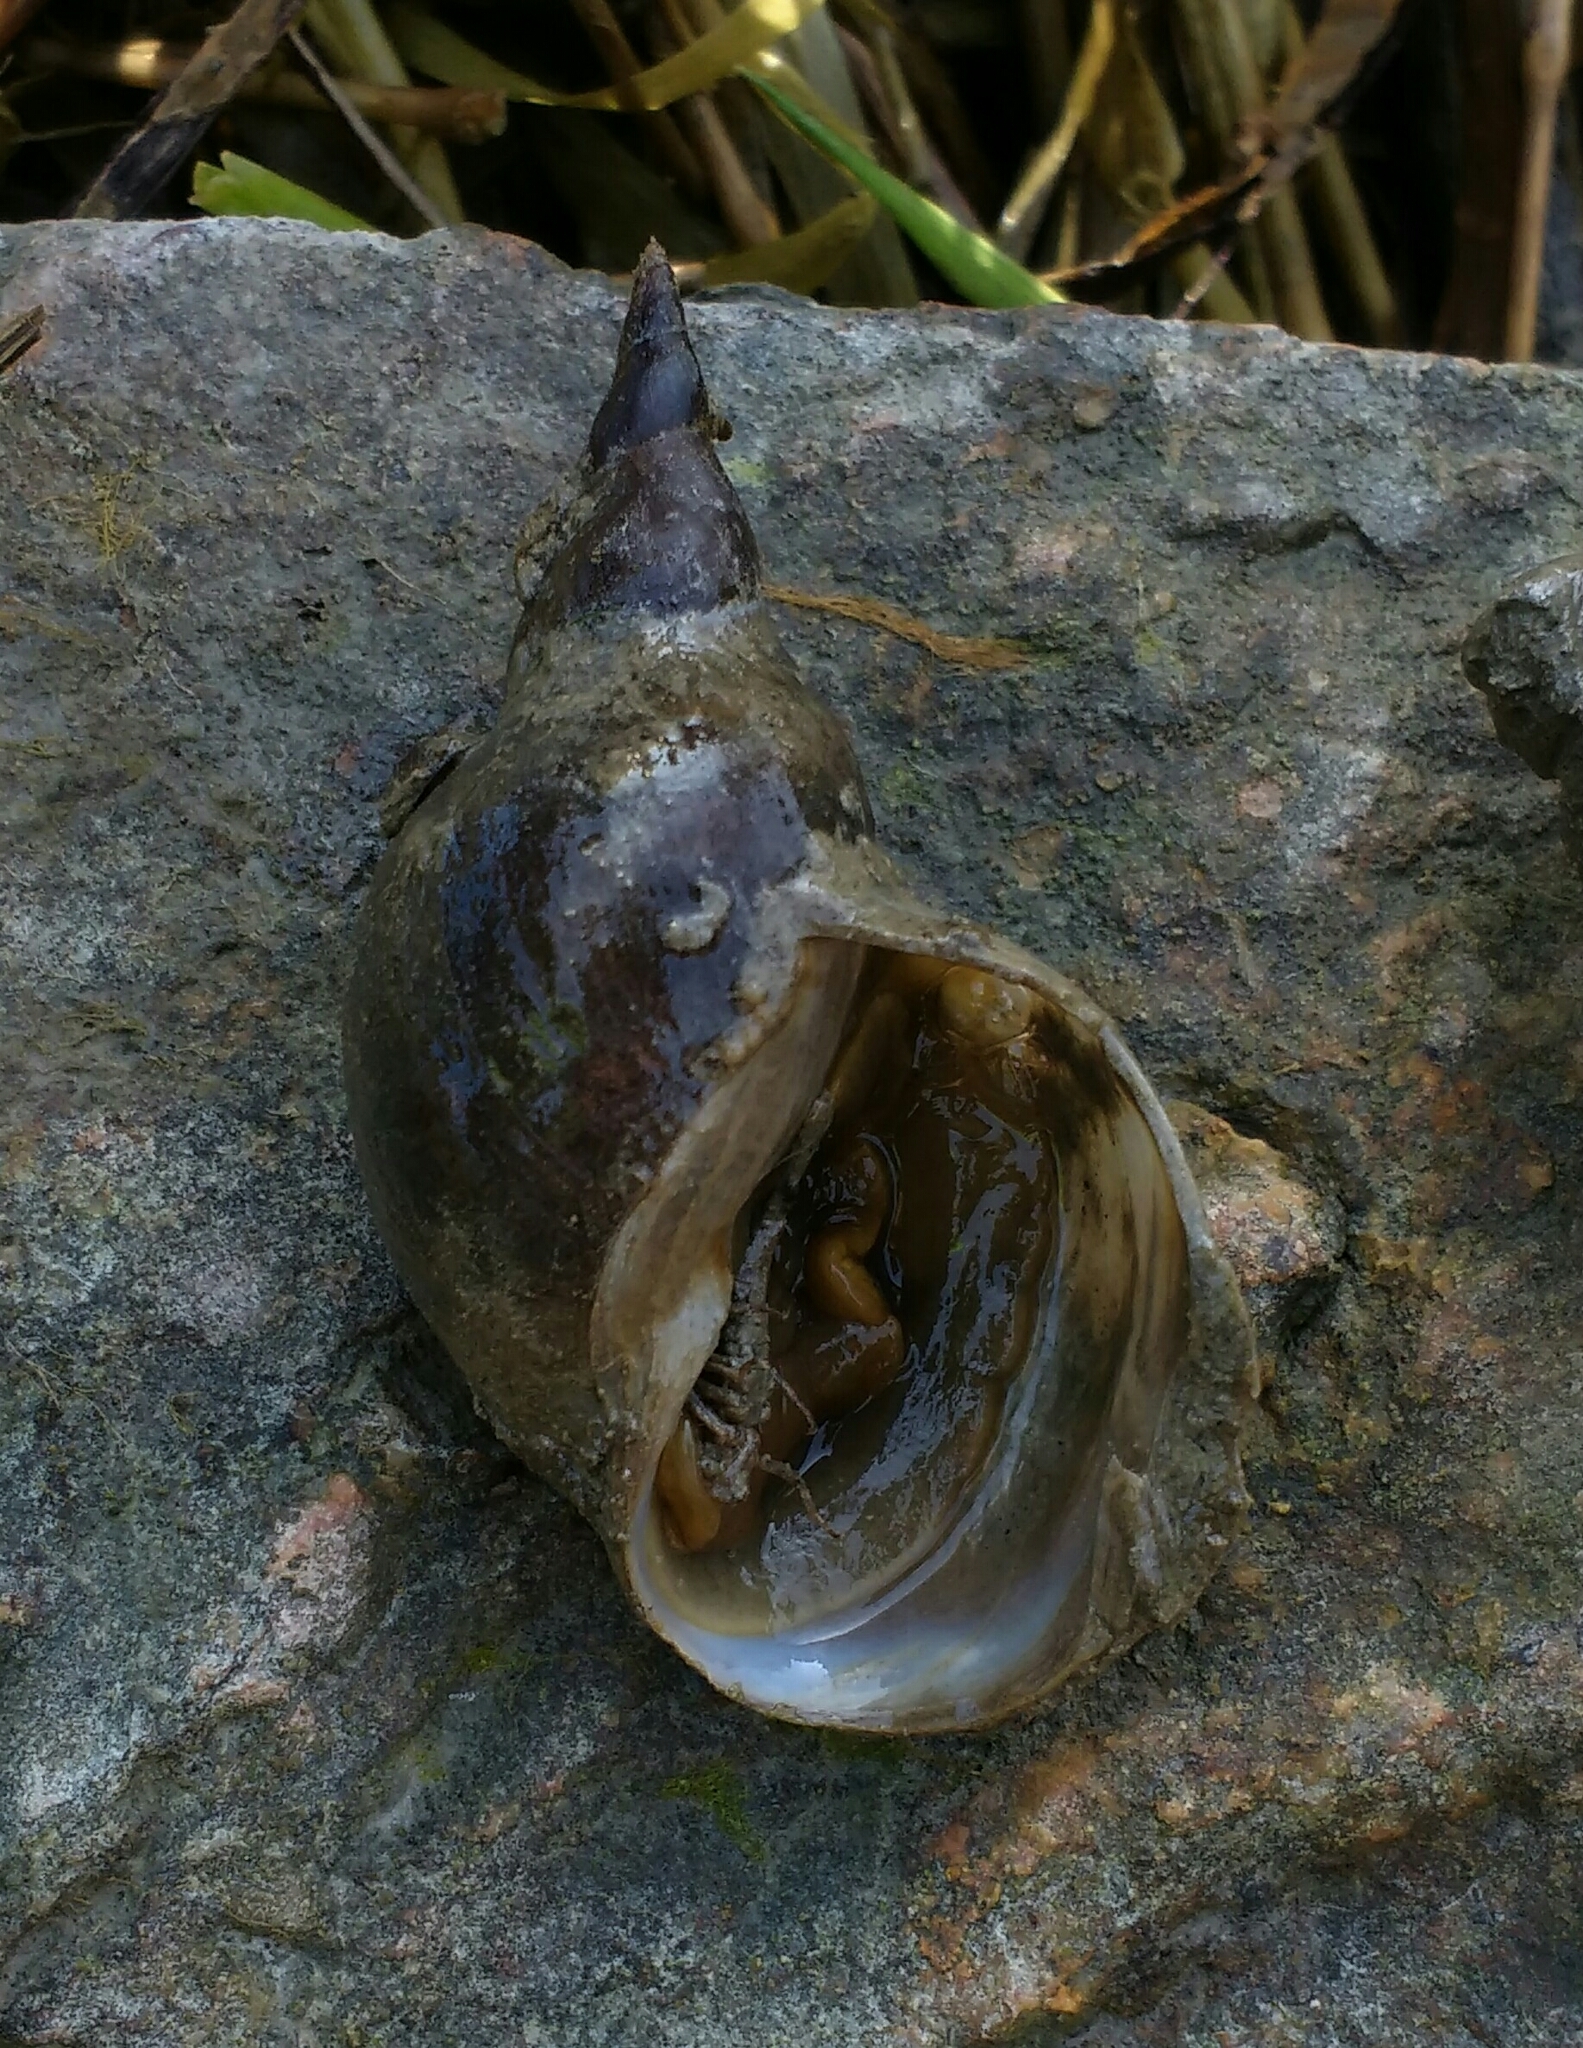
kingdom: Animalia
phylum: Mollusca
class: Gastropoda
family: Lymnaeidae
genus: Lymnaea
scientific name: Lymnaea stagnalis
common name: Great pond snail
